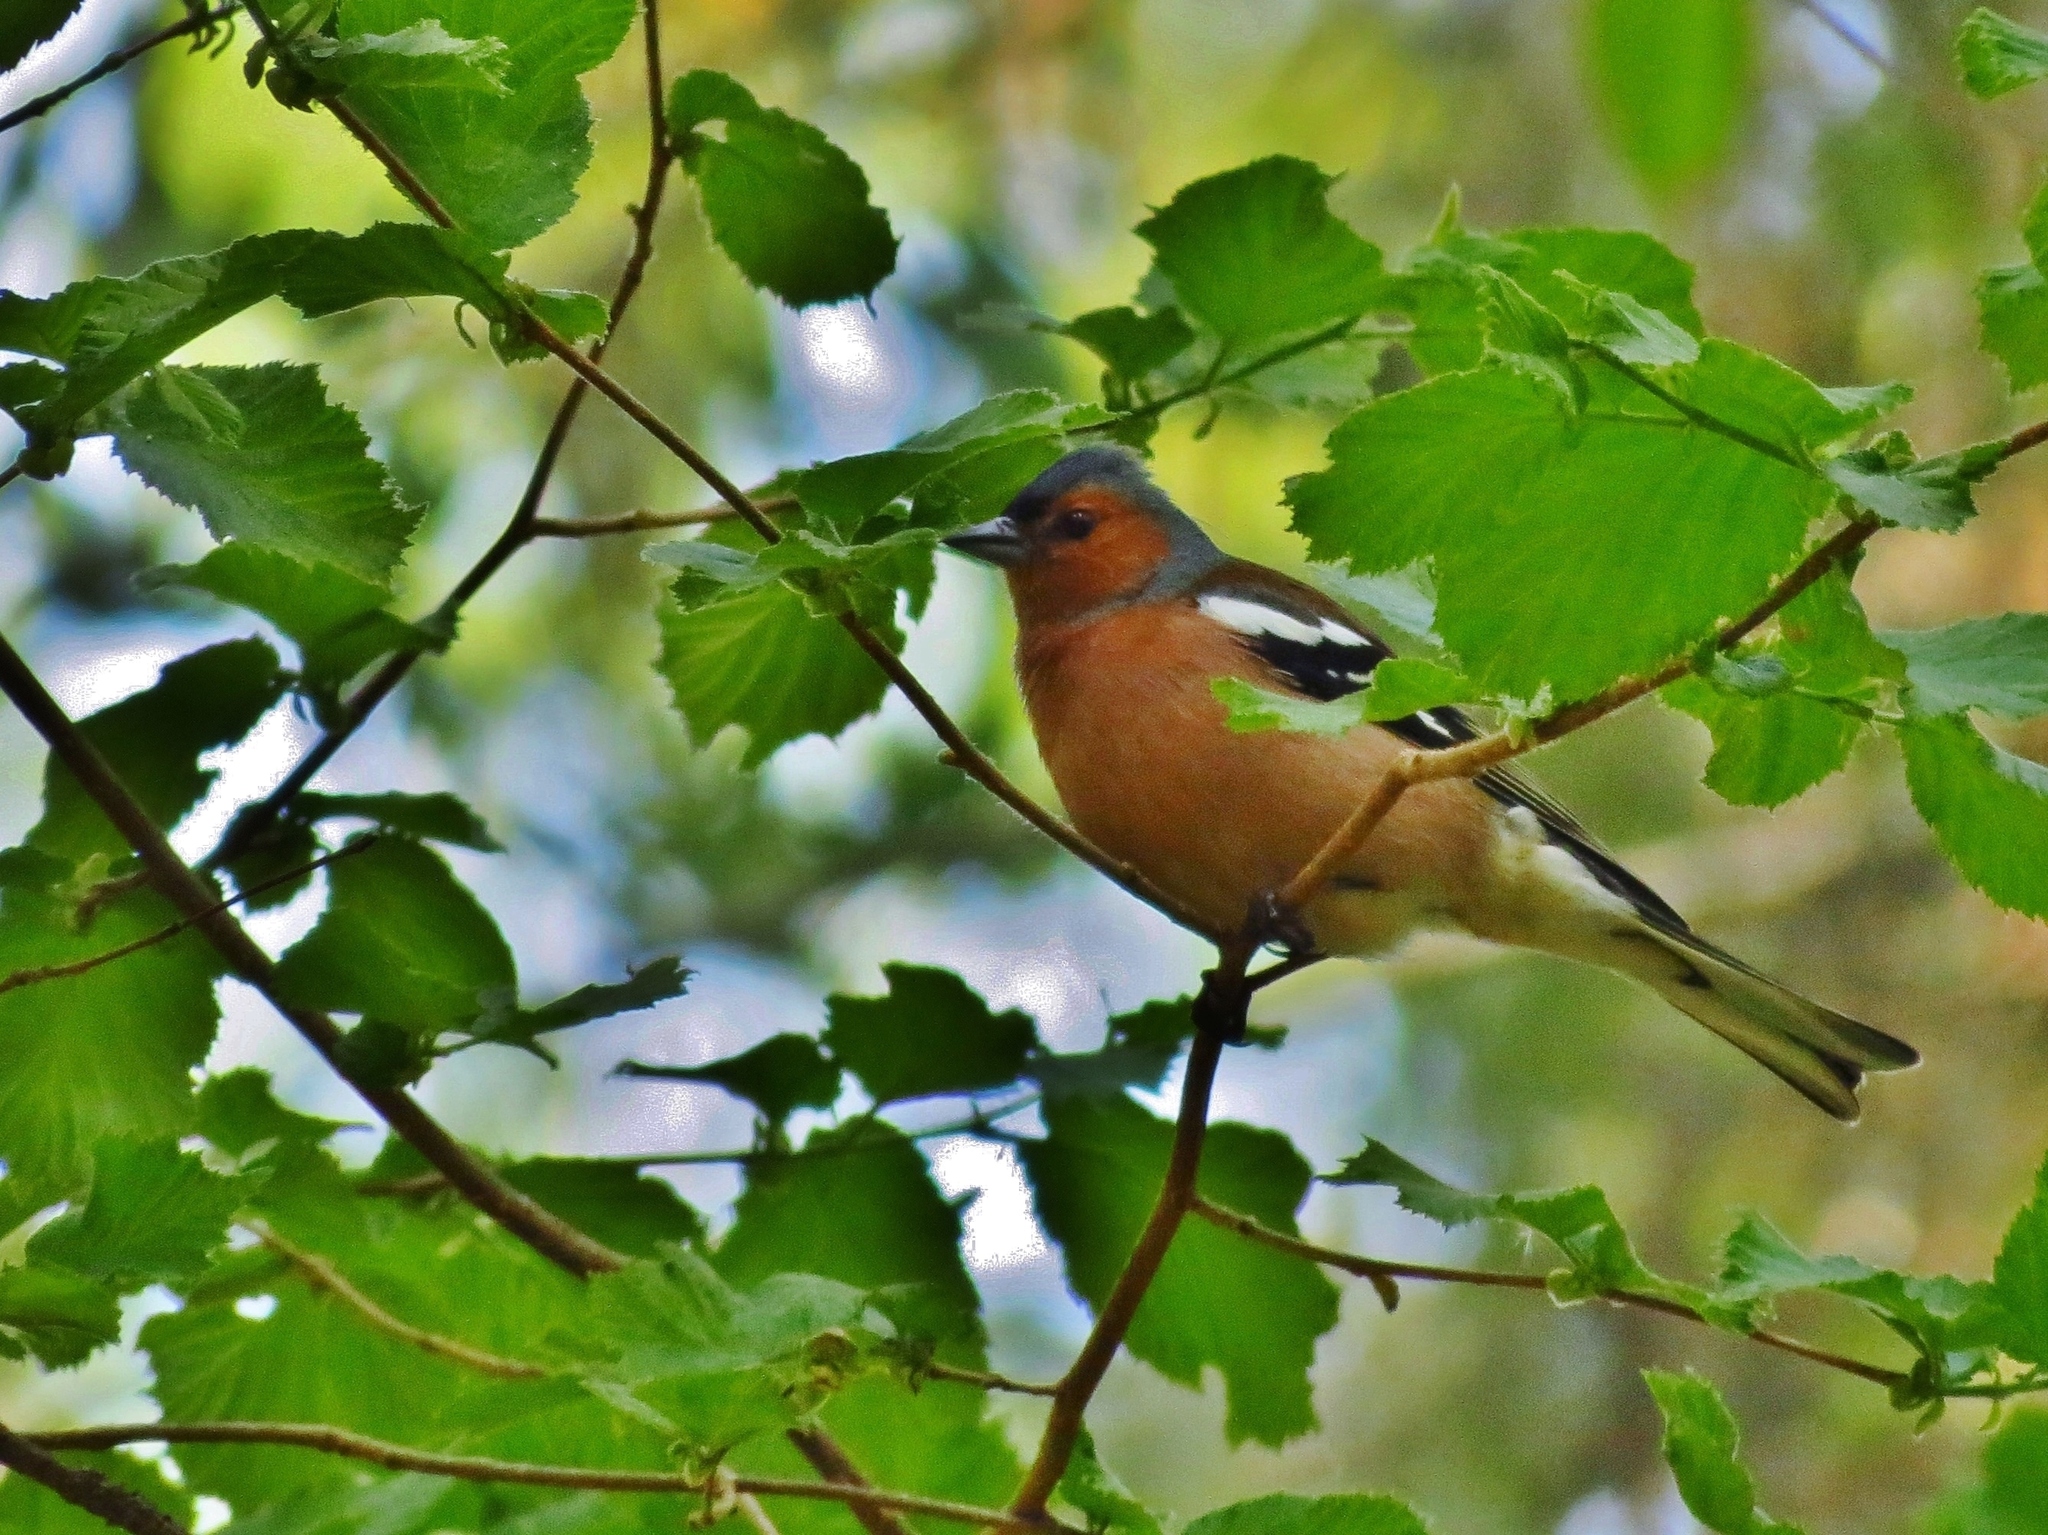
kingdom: Animalia
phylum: Chordata
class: Aves
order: Passeriformes
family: Fringillidae
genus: Fringilla
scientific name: Fringilla coelebs
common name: Common chaffinch
